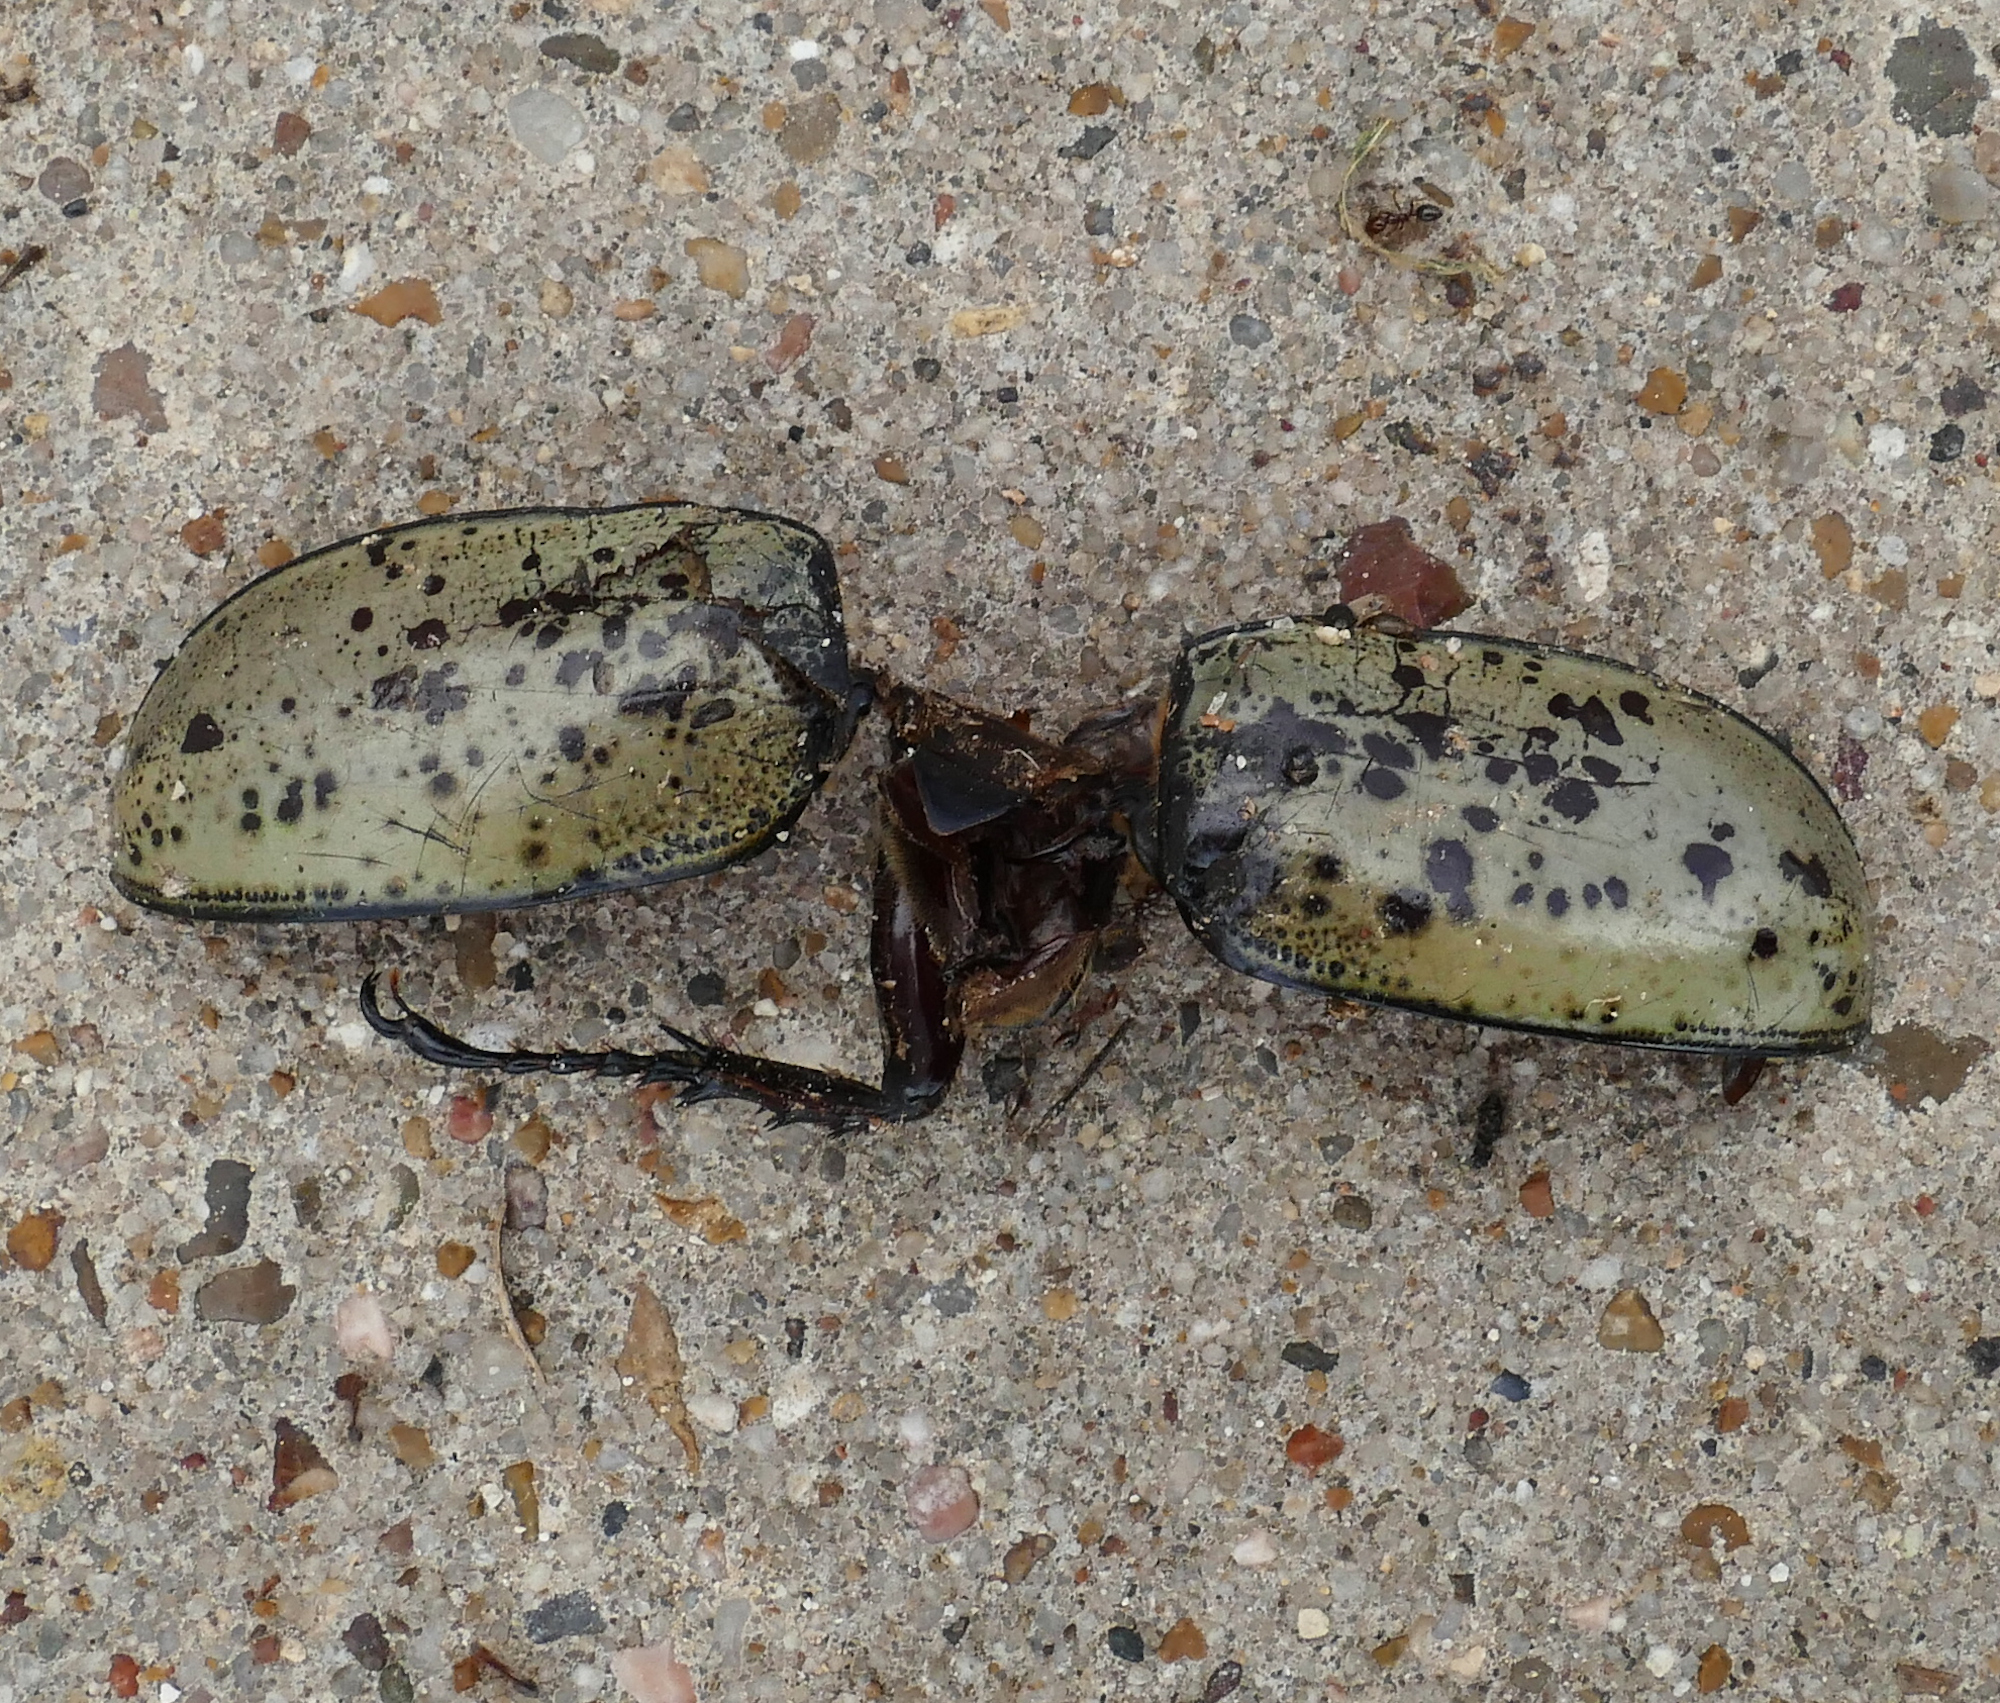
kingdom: Animalia
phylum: Arthropoda
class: Insecta
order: Coleoptera
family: Scarabaeidae
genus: Dynastes
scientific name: Dynastes tityus
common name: Eastern hercules beetle
